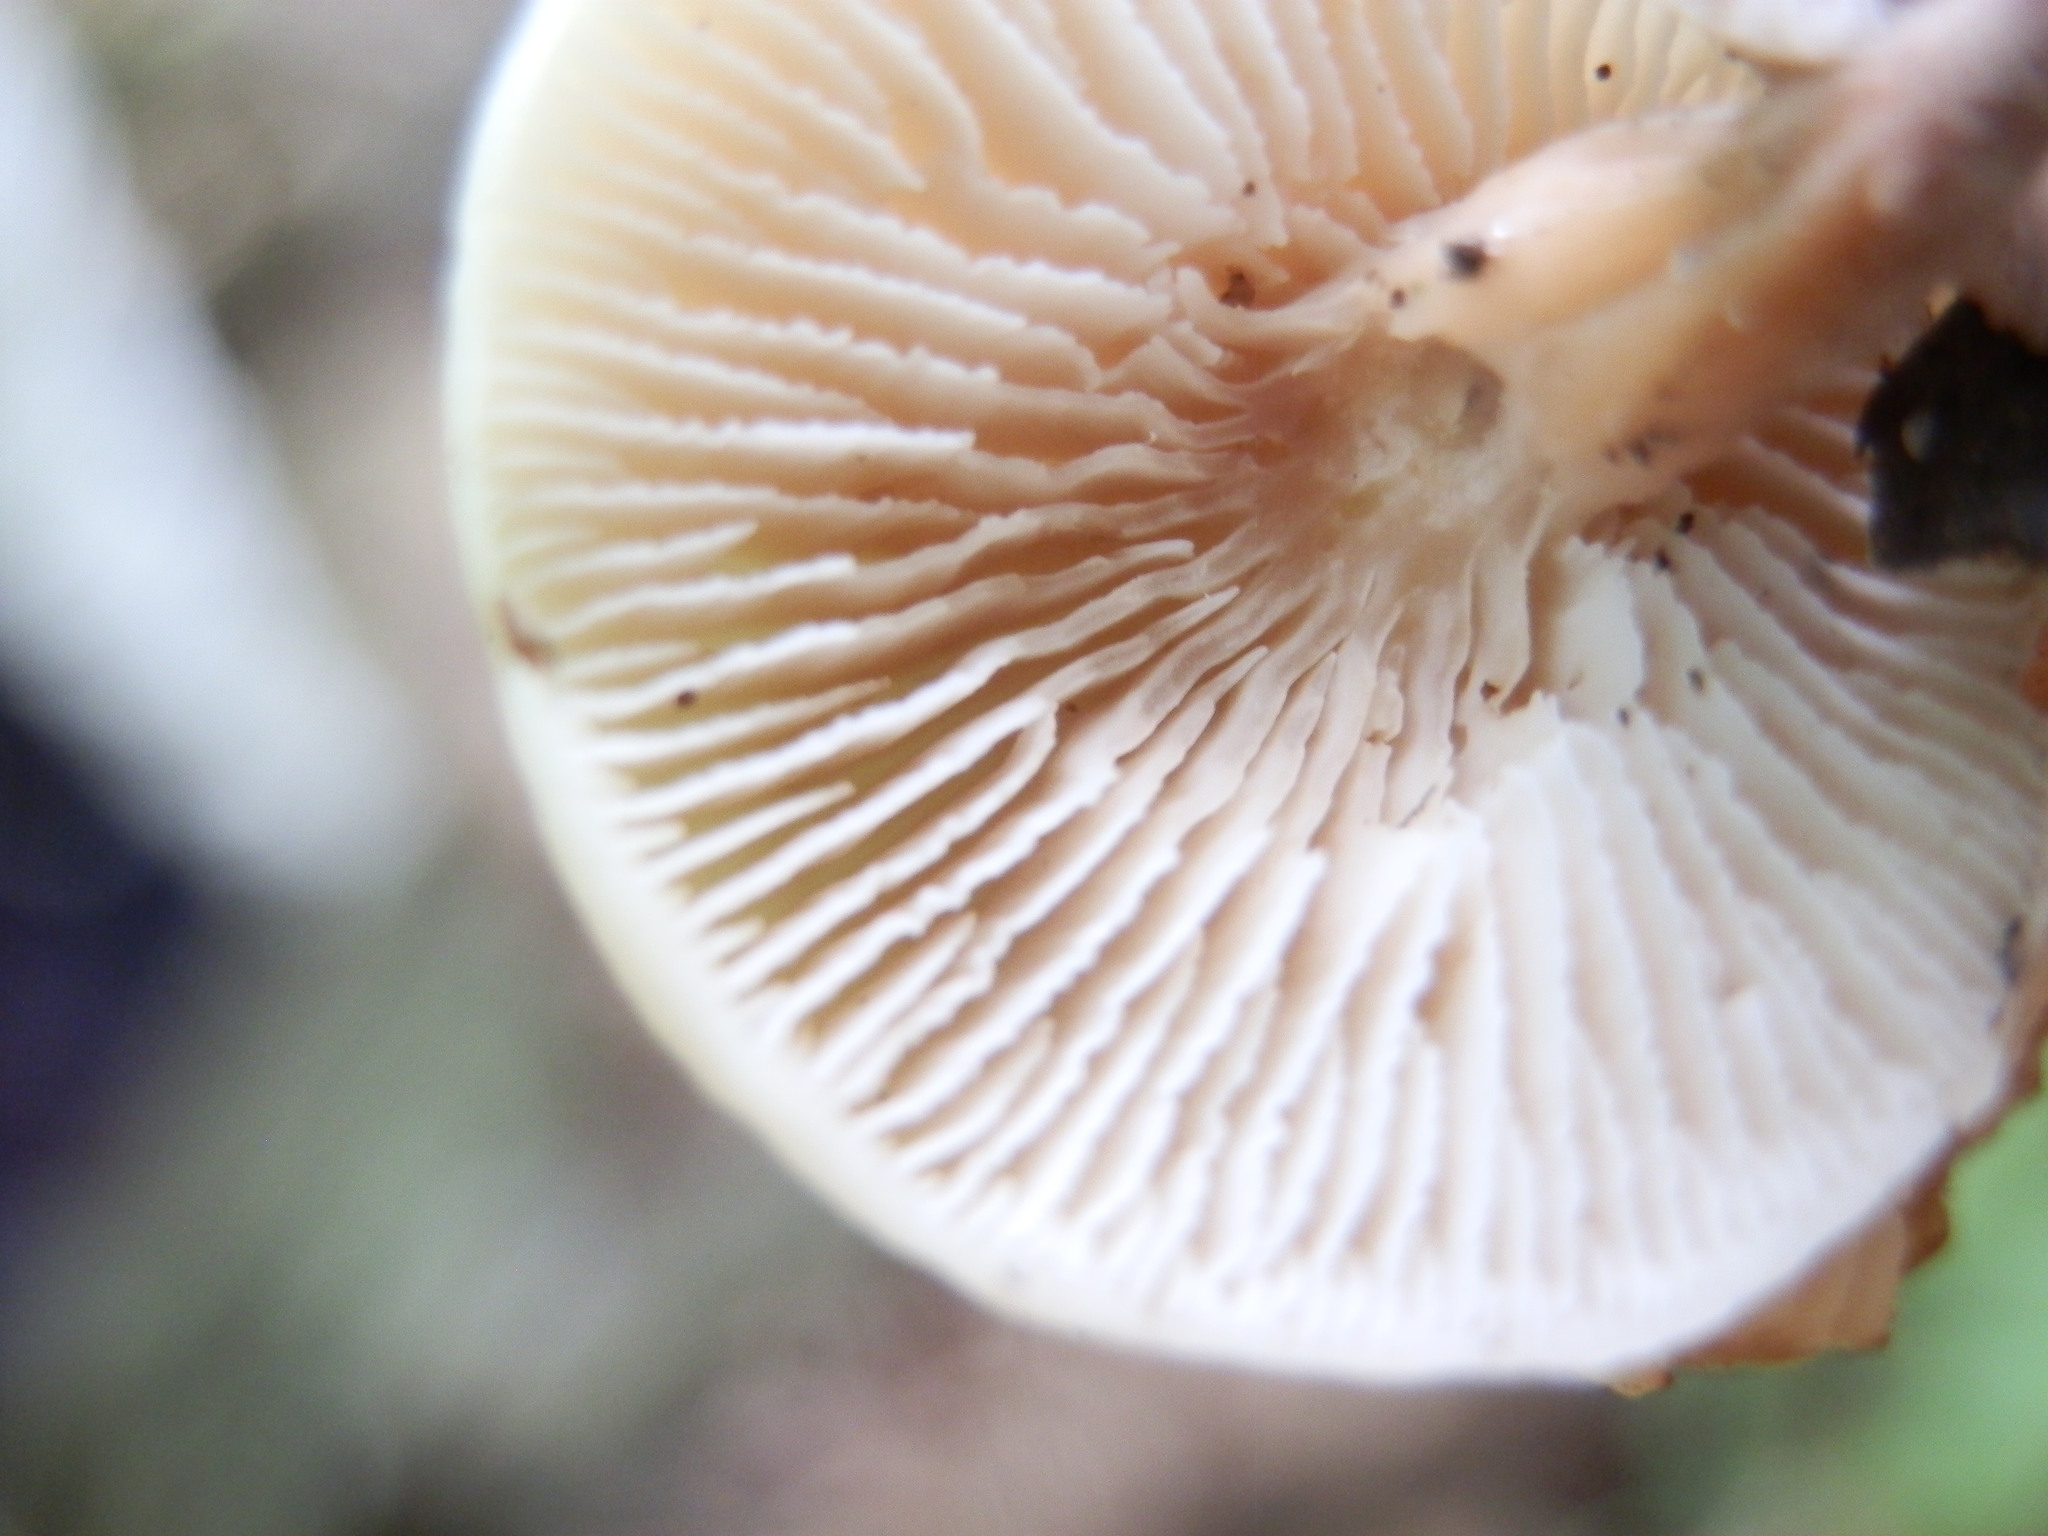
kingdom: Fungi
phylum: Basidiomycota
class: Agaricomycetes
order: Russulales
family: Auriscalpiaceae
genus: Lentinellus
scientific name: Lentinellus micheneri
